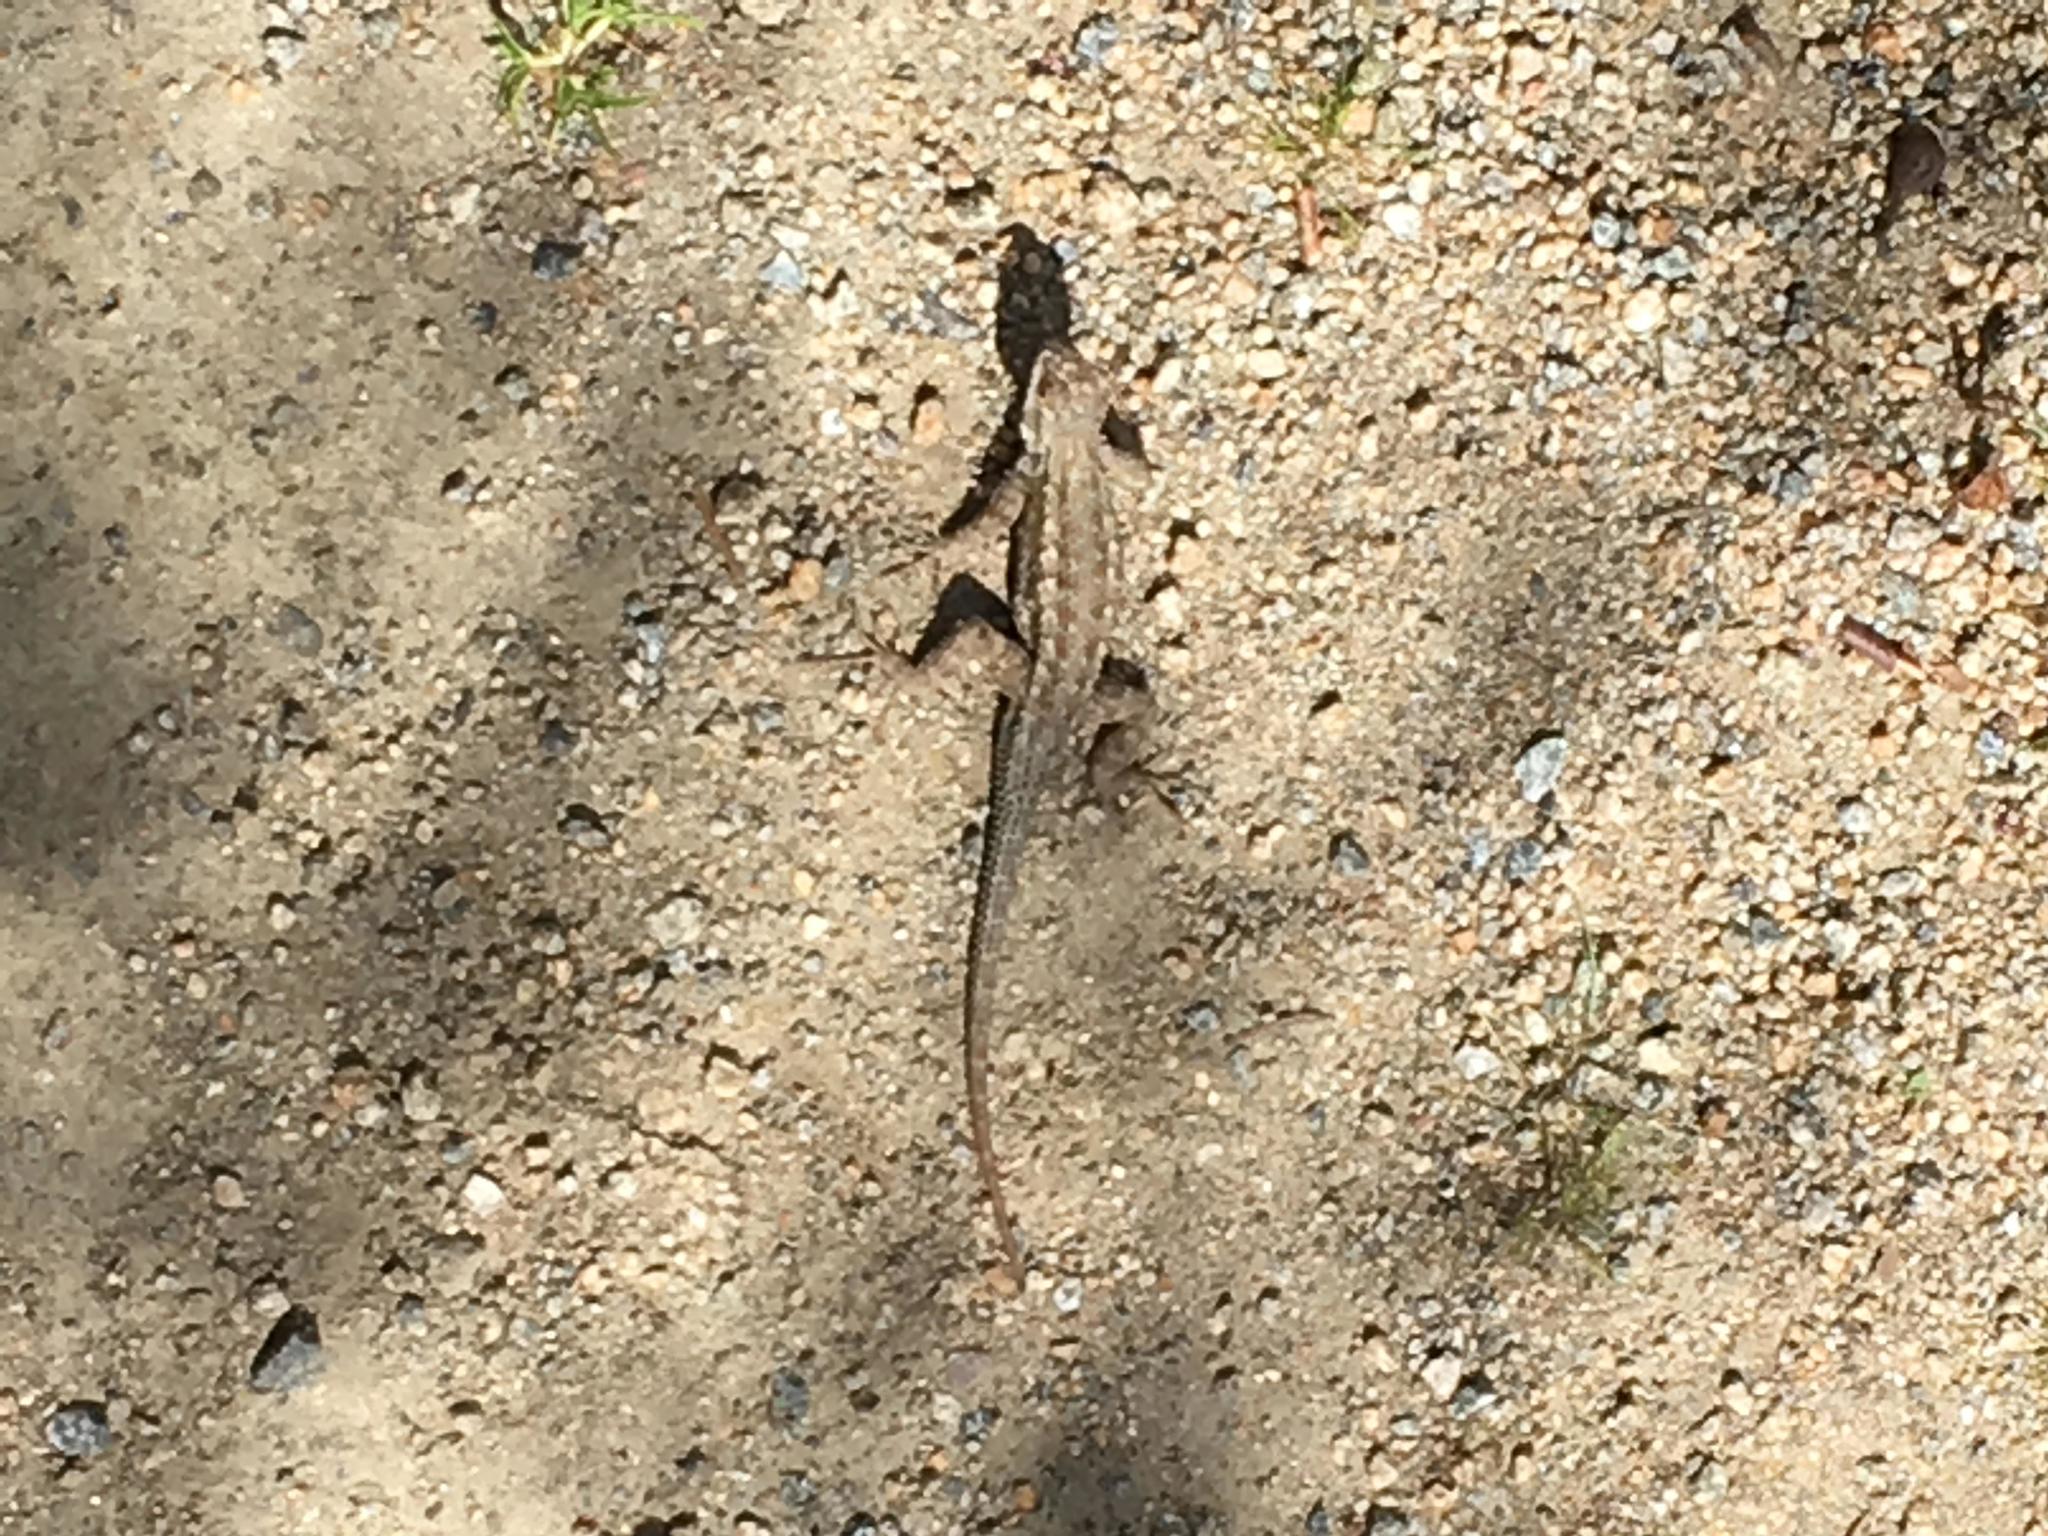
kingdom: Animalia
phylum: Chordata
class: Squamata
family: Phrynosomatidae
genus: Sceloporus
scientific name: Sceloporus occidentalis
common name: Western fence lizard
